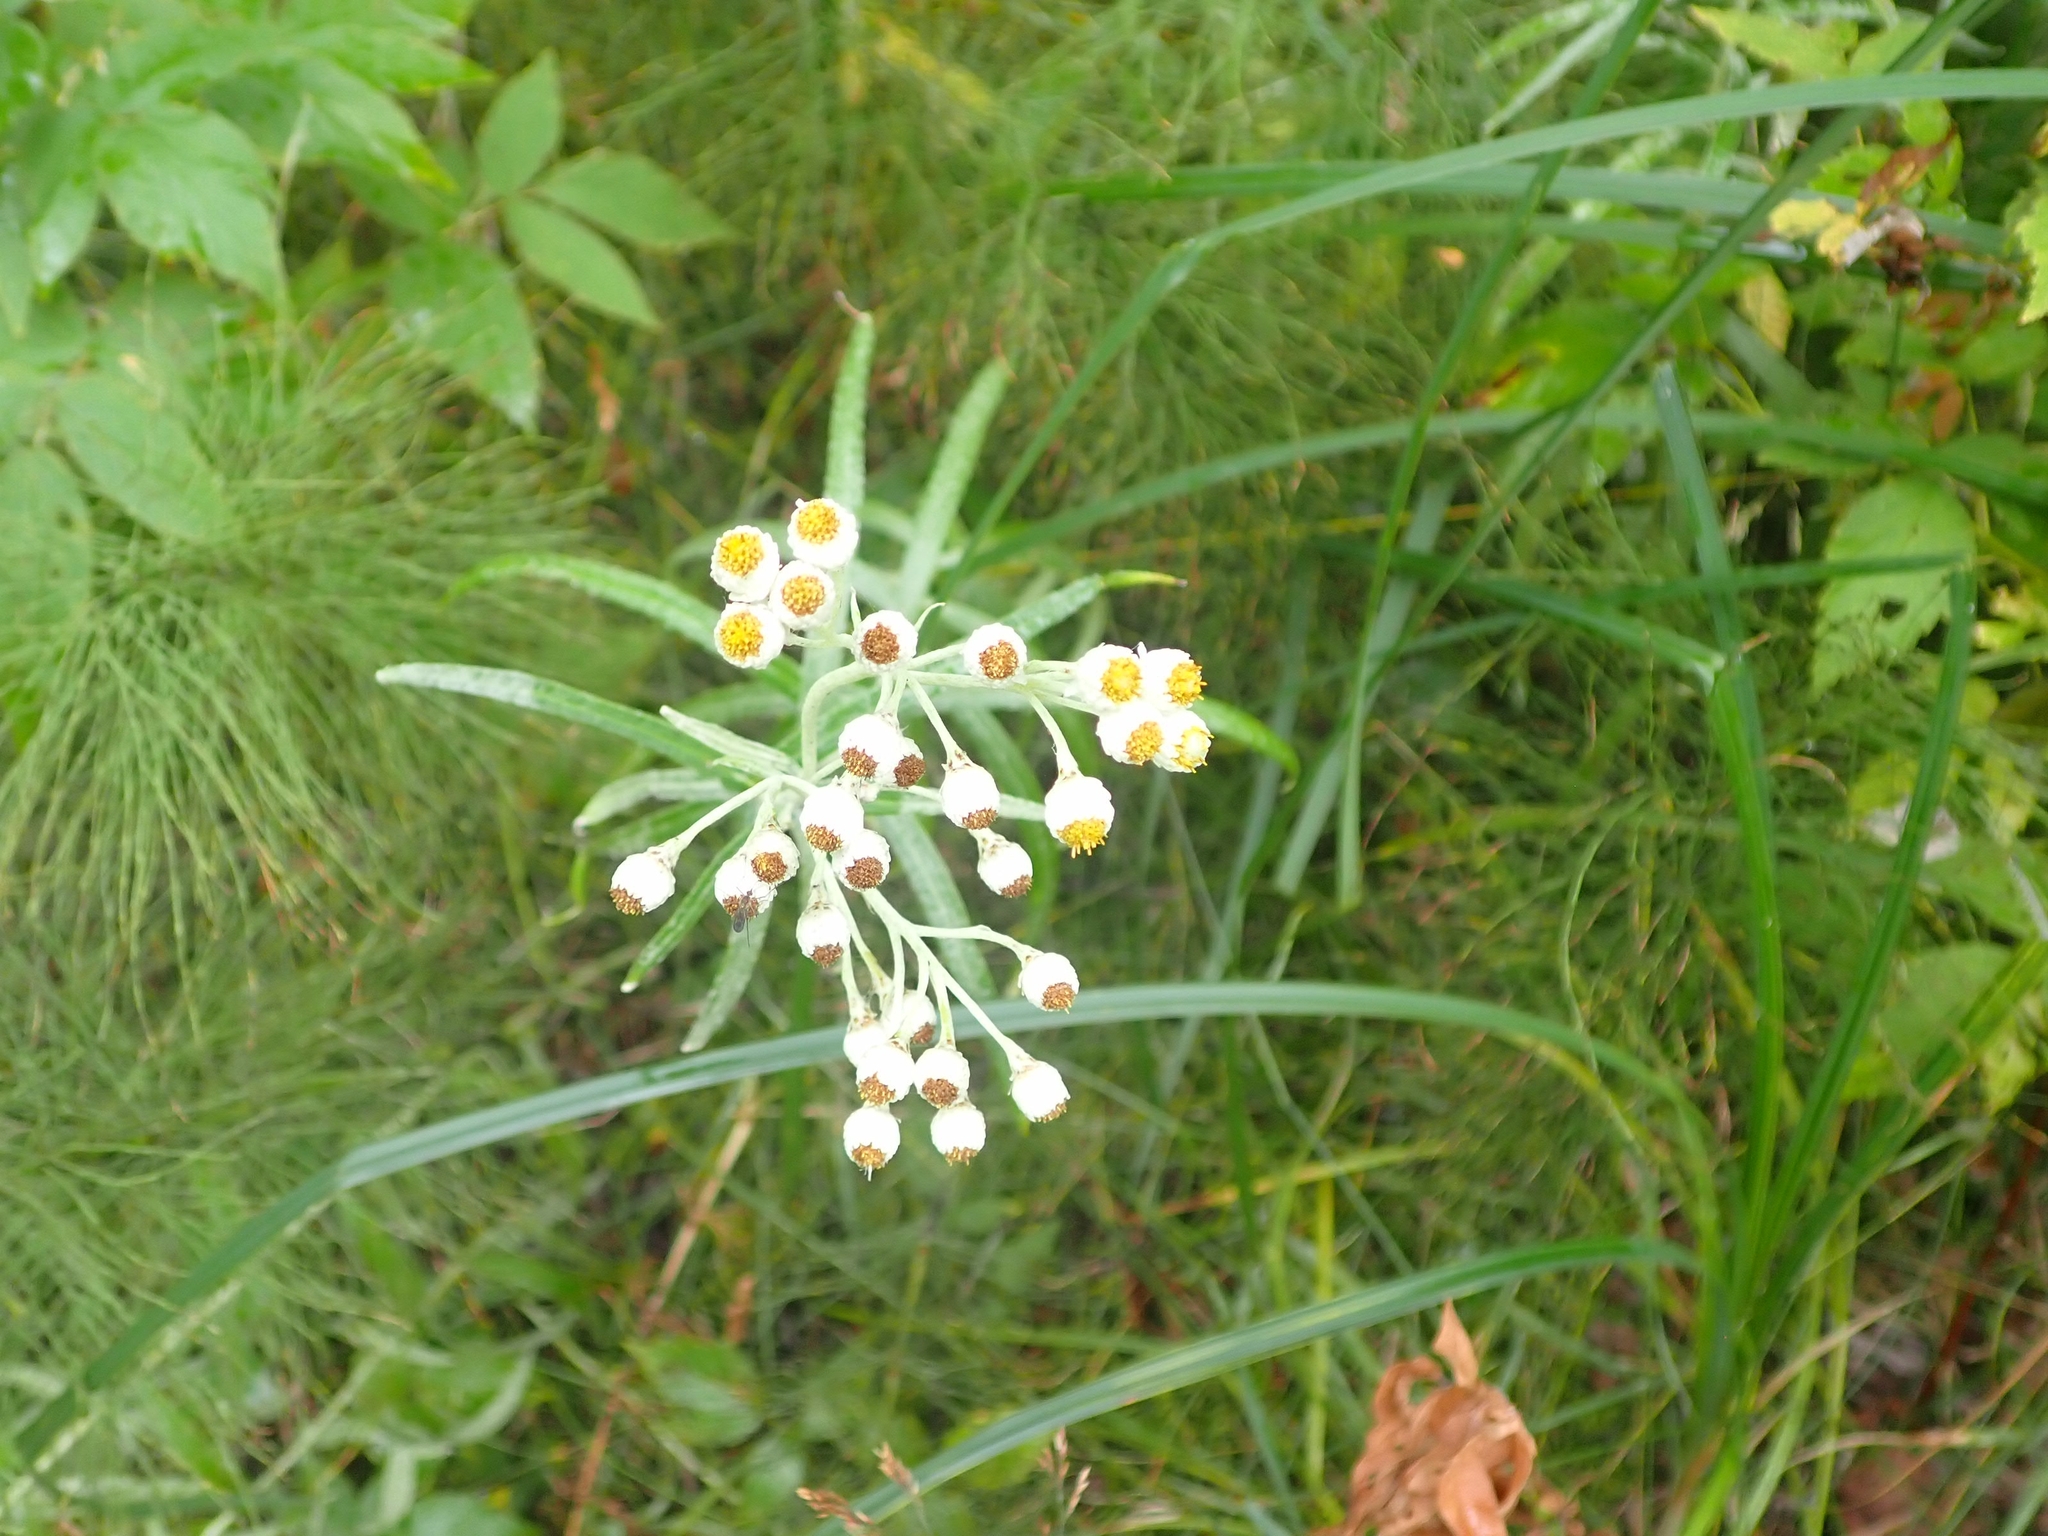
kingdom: Plantae
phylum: Tracheophyta
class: Magnoliopsida
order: Asterales
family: Asteraceae
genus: Anaphalis
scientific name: Anaphalis margaritacea
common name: Pearly everlasting
